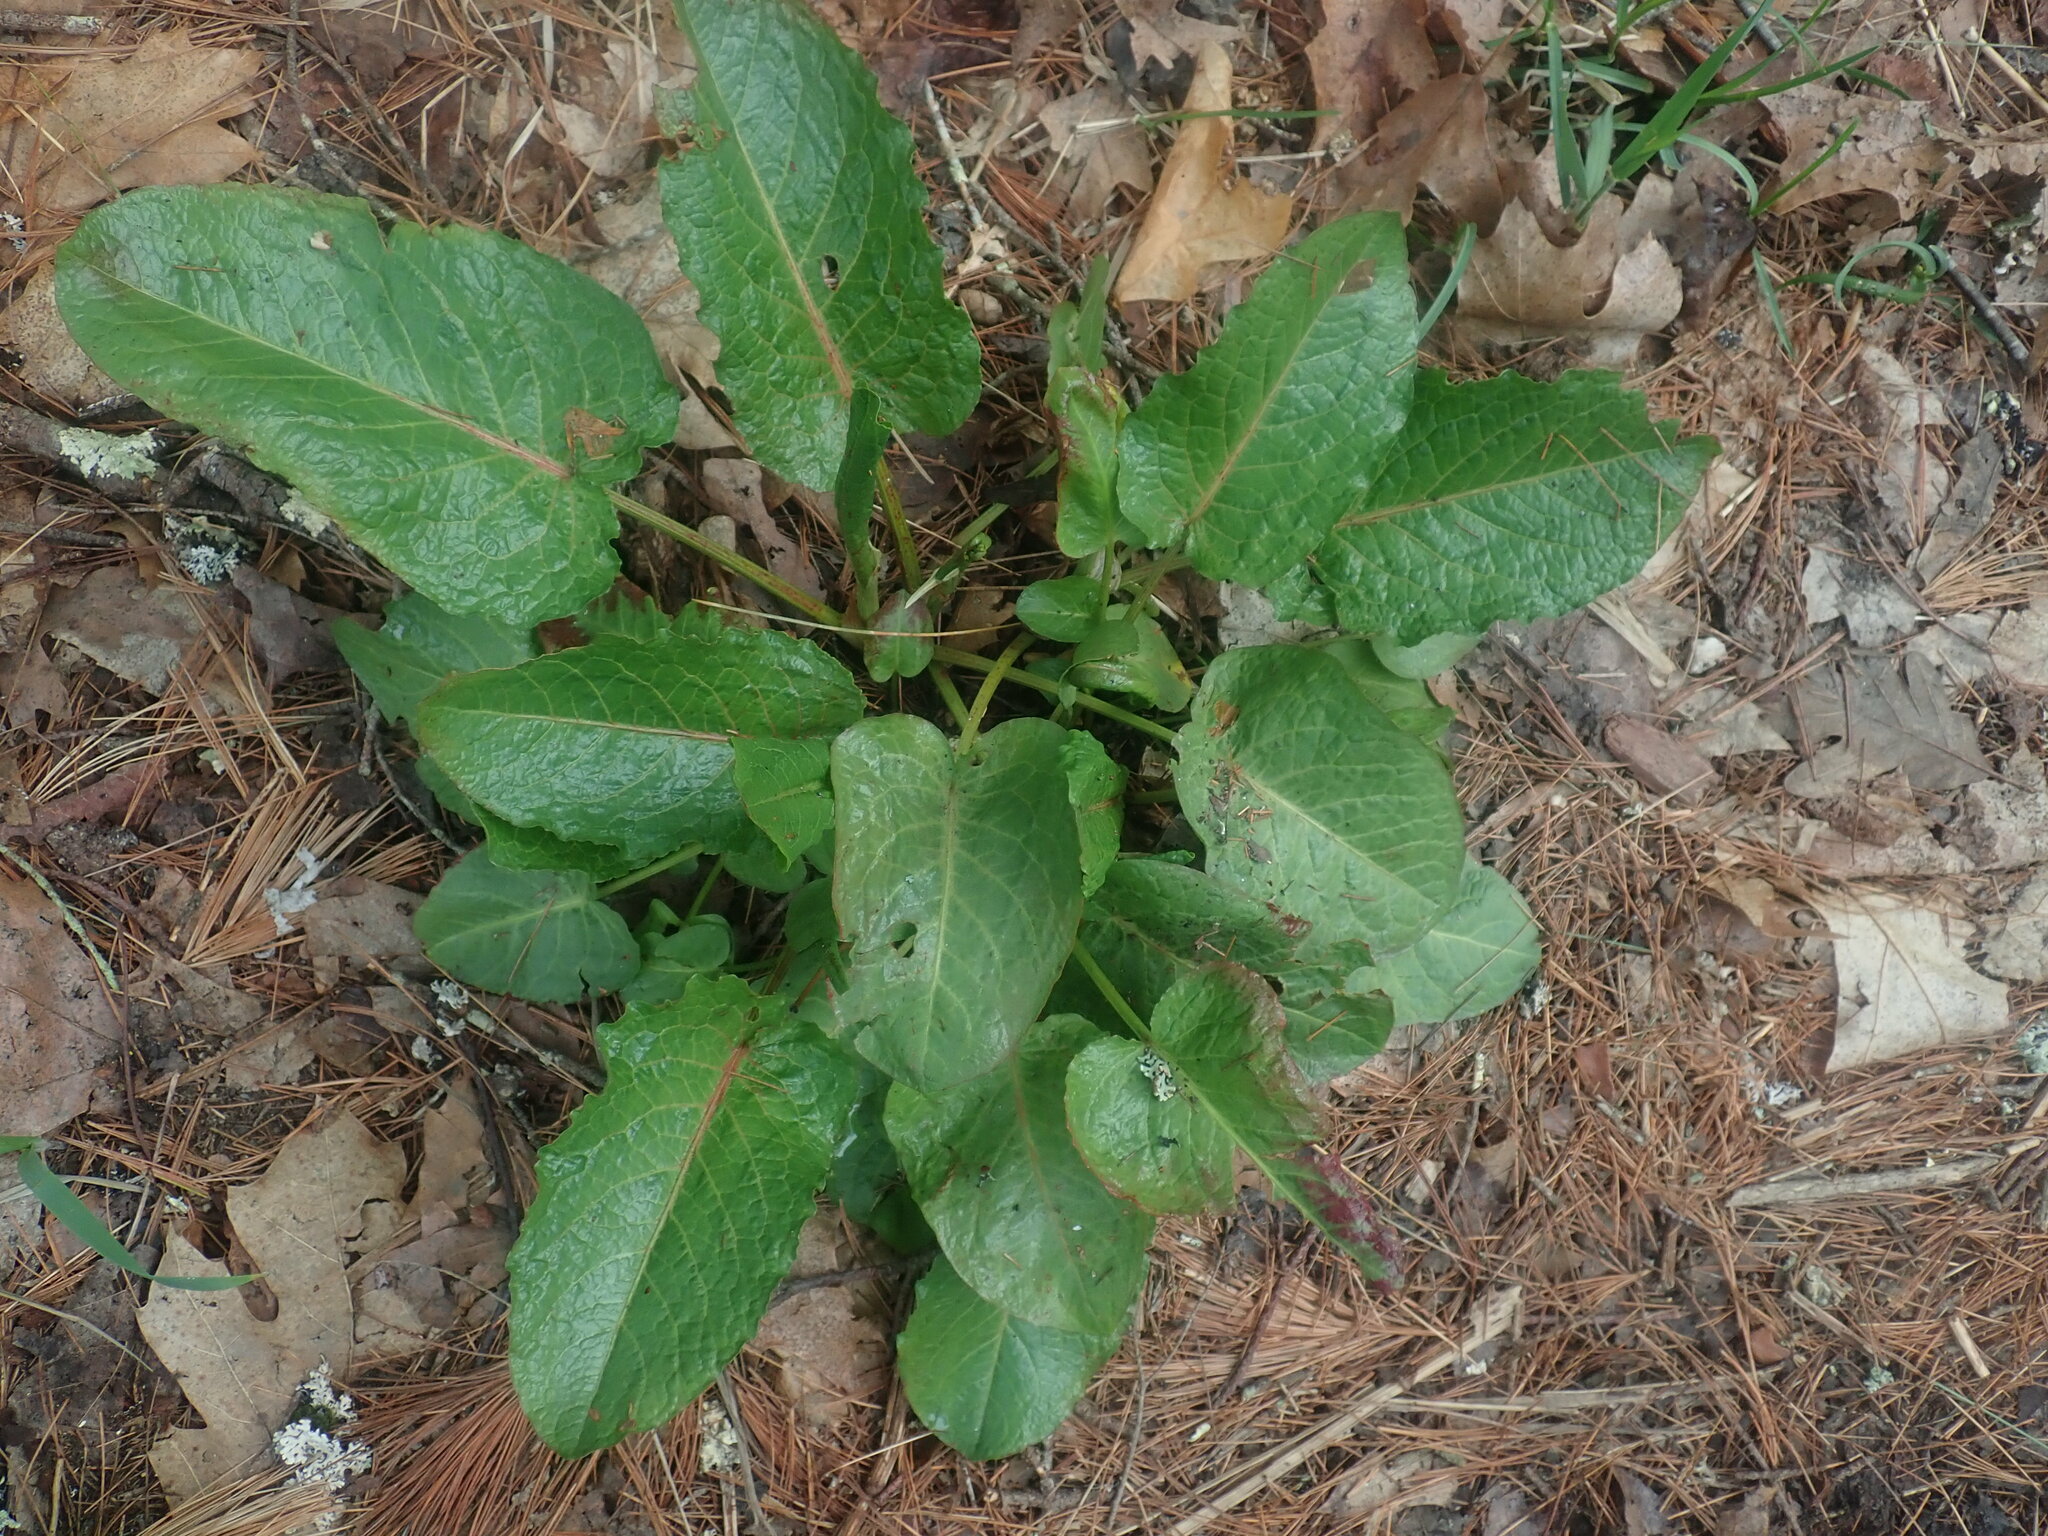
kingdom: Plantae
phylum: Tracheophyta
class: Magnoliopsida
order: Caryophyllales
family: Polygonaceae
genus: Rumex
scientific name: Rumex obtusifolius
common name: Bitter dock
